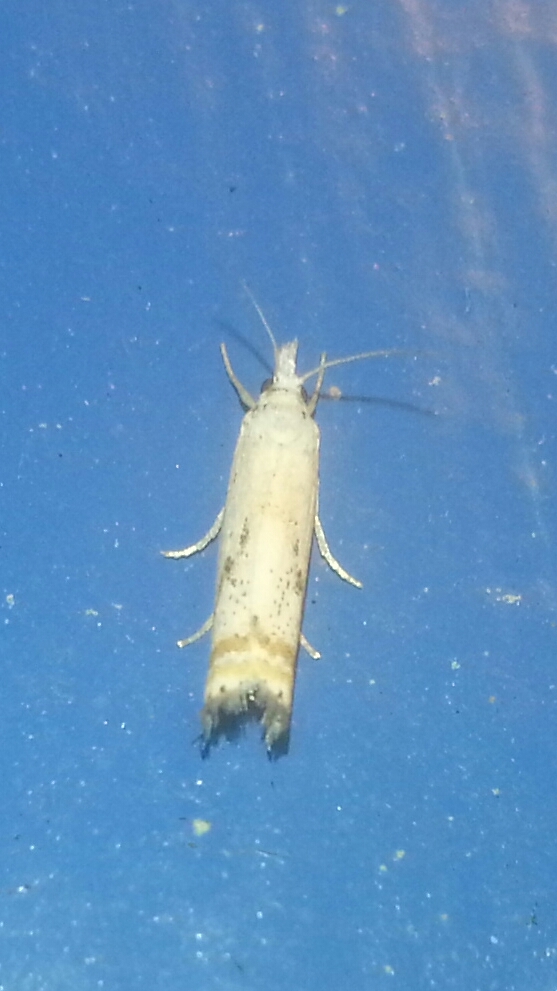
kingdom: Animalia
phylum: Arthropoda
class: Insecta
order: Lepidoptera
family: Crambidae
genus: Microcrambus
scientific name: Microcrambus elegans
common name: Elegant grass-veneer
